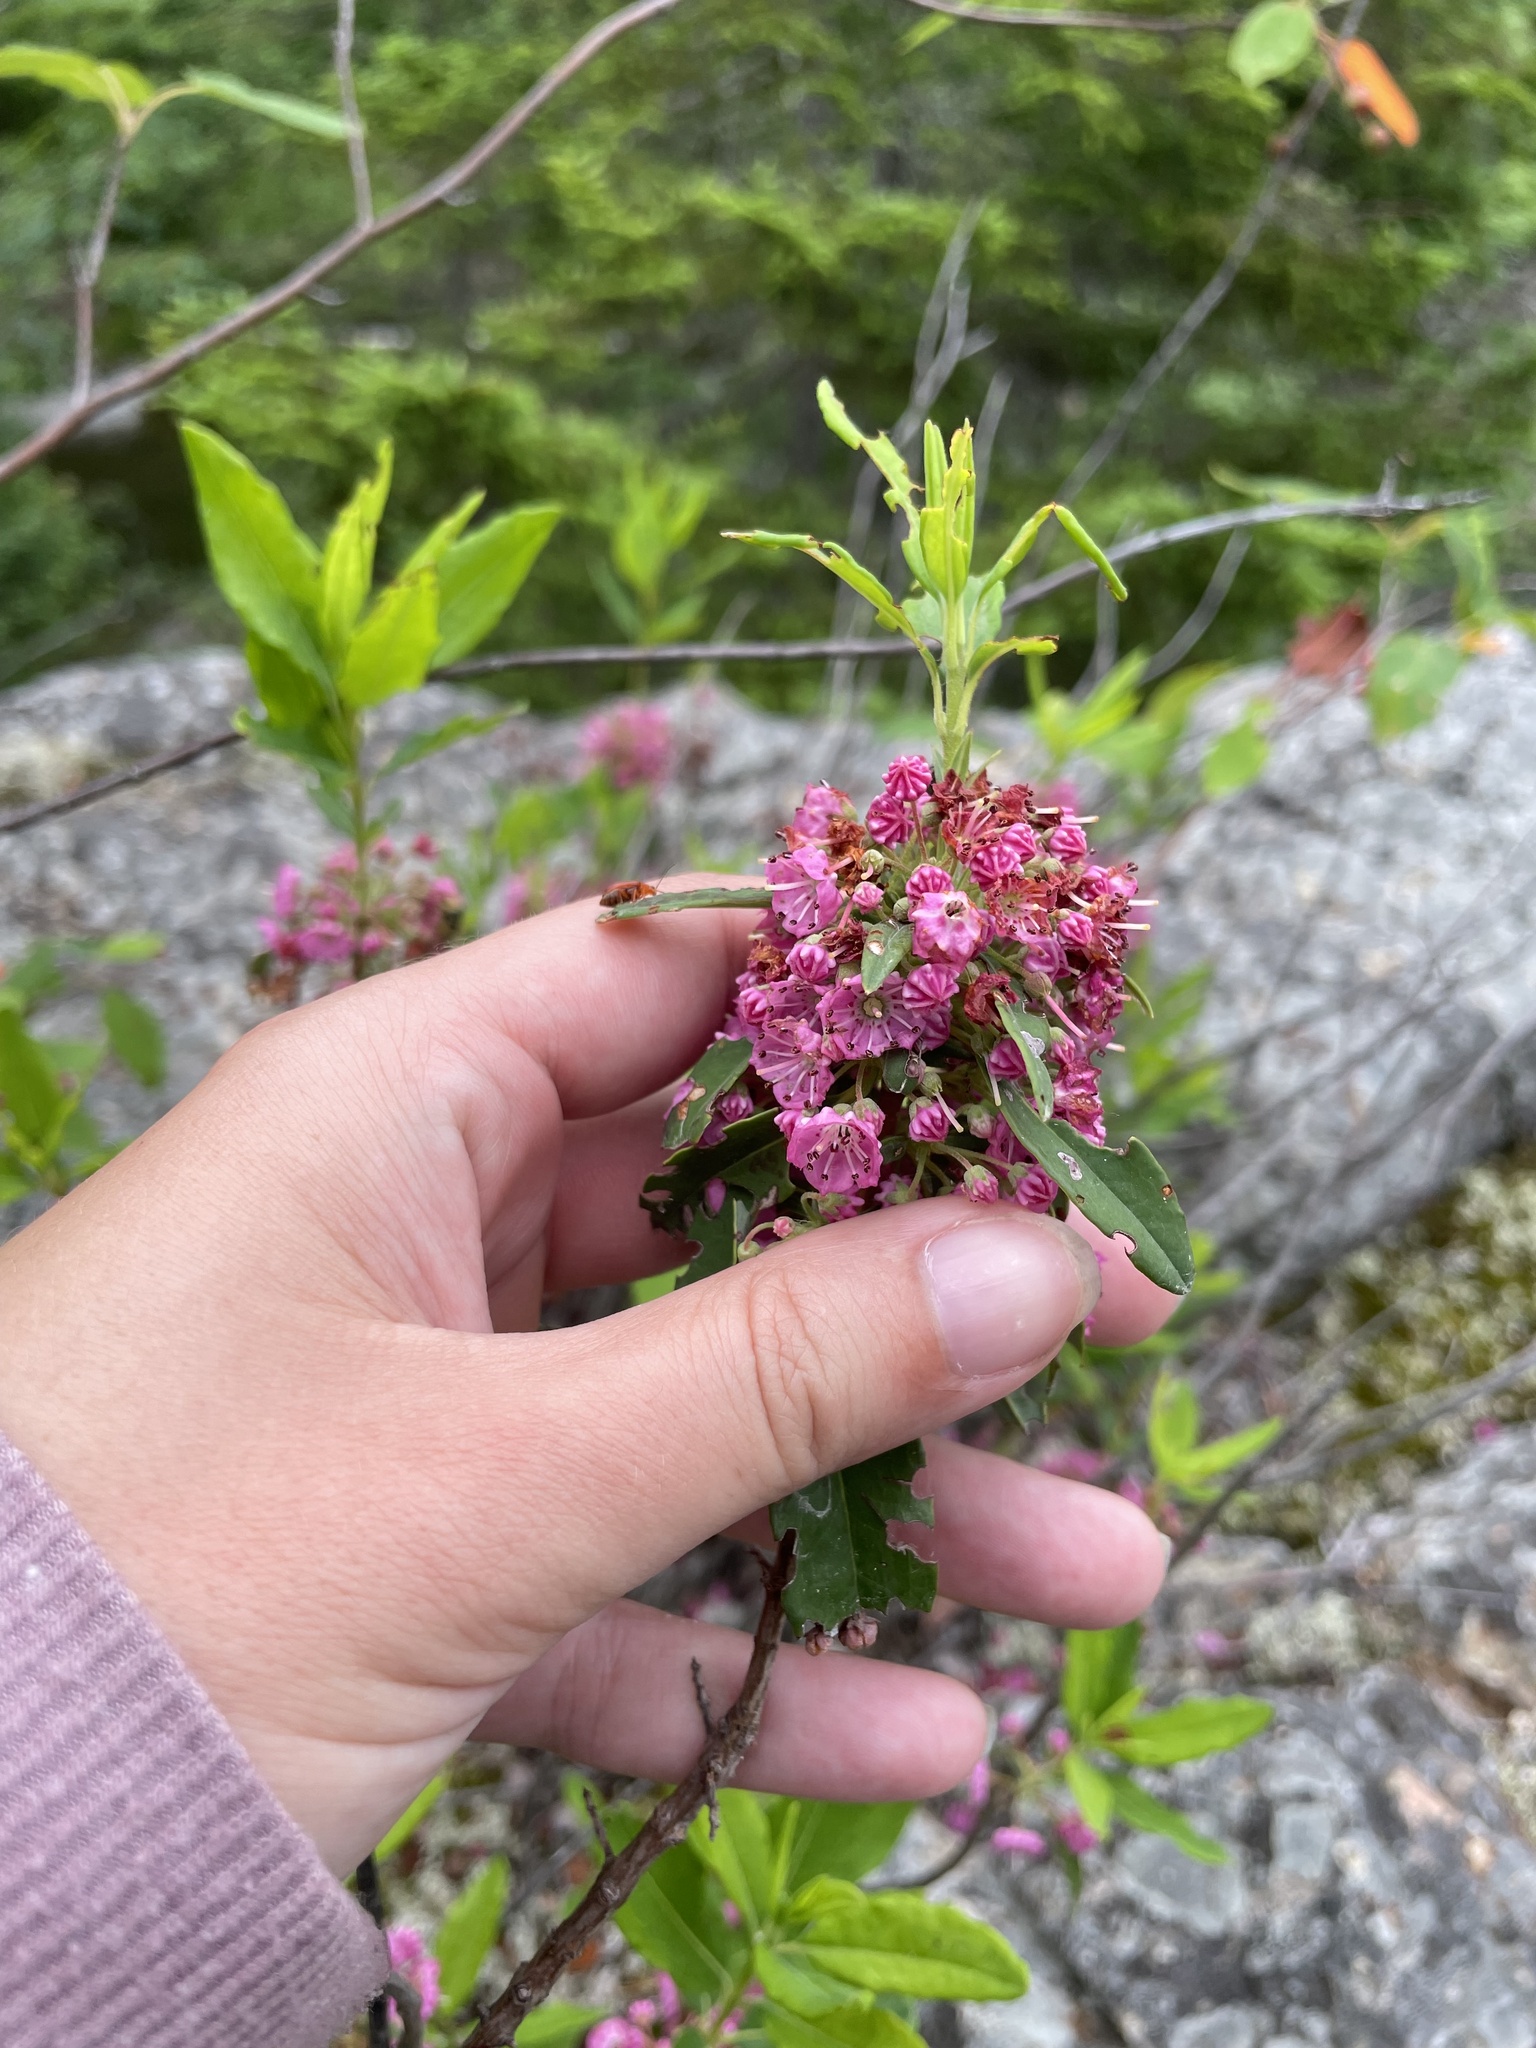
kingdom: Plantae
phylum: Tracheophyta
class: Magnoliopsida
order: Ericales
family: Ericaceae
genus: Kalmia
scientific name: Kalmia angustifolia
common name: Sheep-laurel
